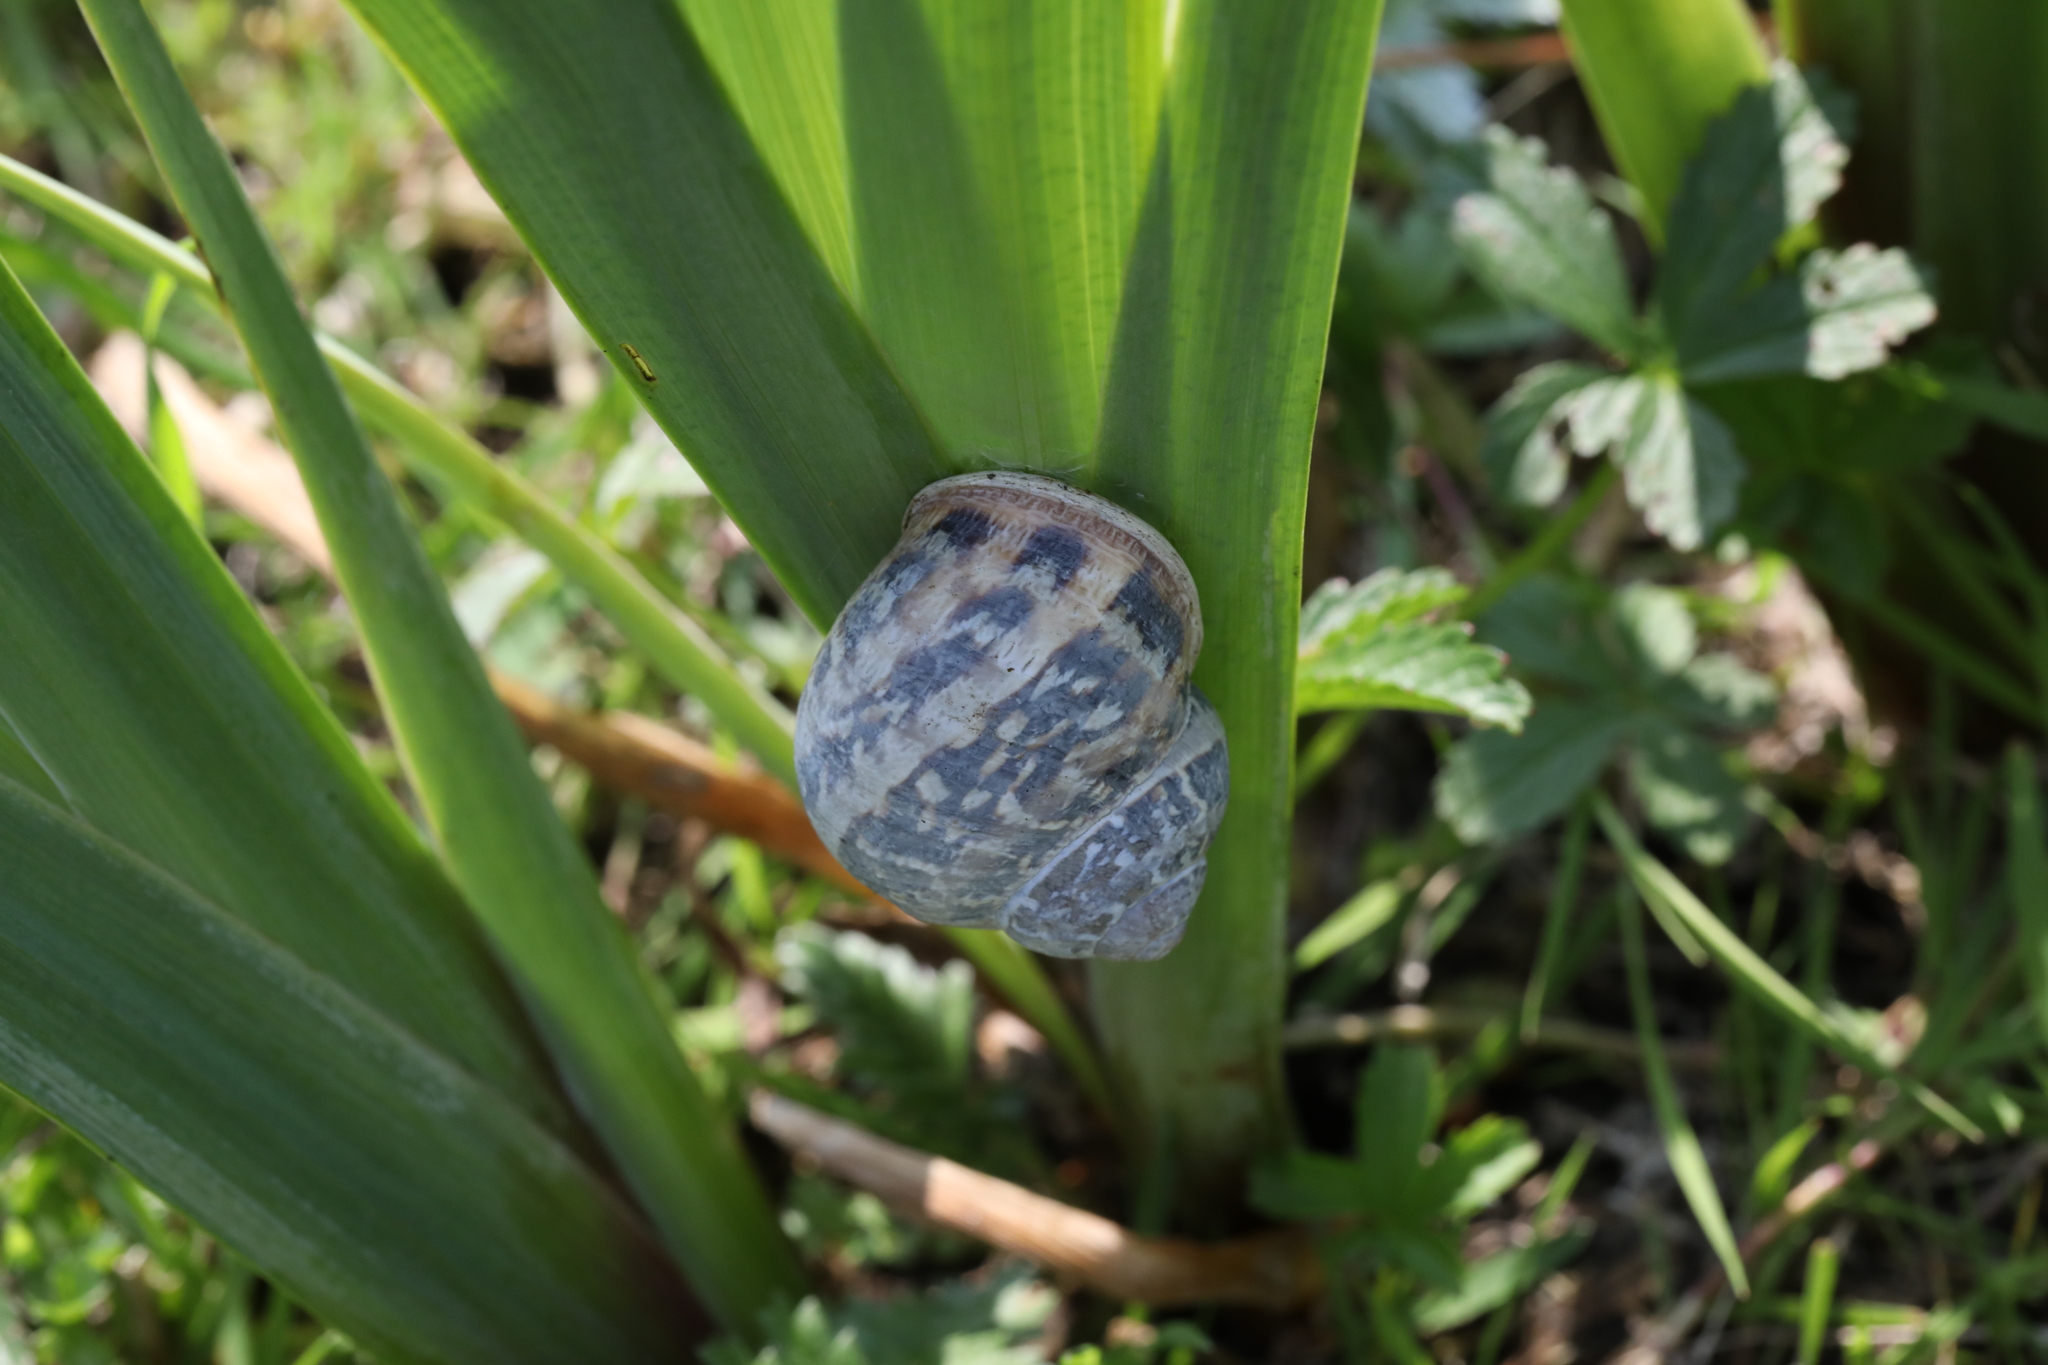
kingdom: Animalia
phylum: Mollusca
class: Gastropoda
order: Stylommatophora
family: Helicidae
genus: Cornu
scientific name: Cornu aspersum
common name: Brown garden snail
